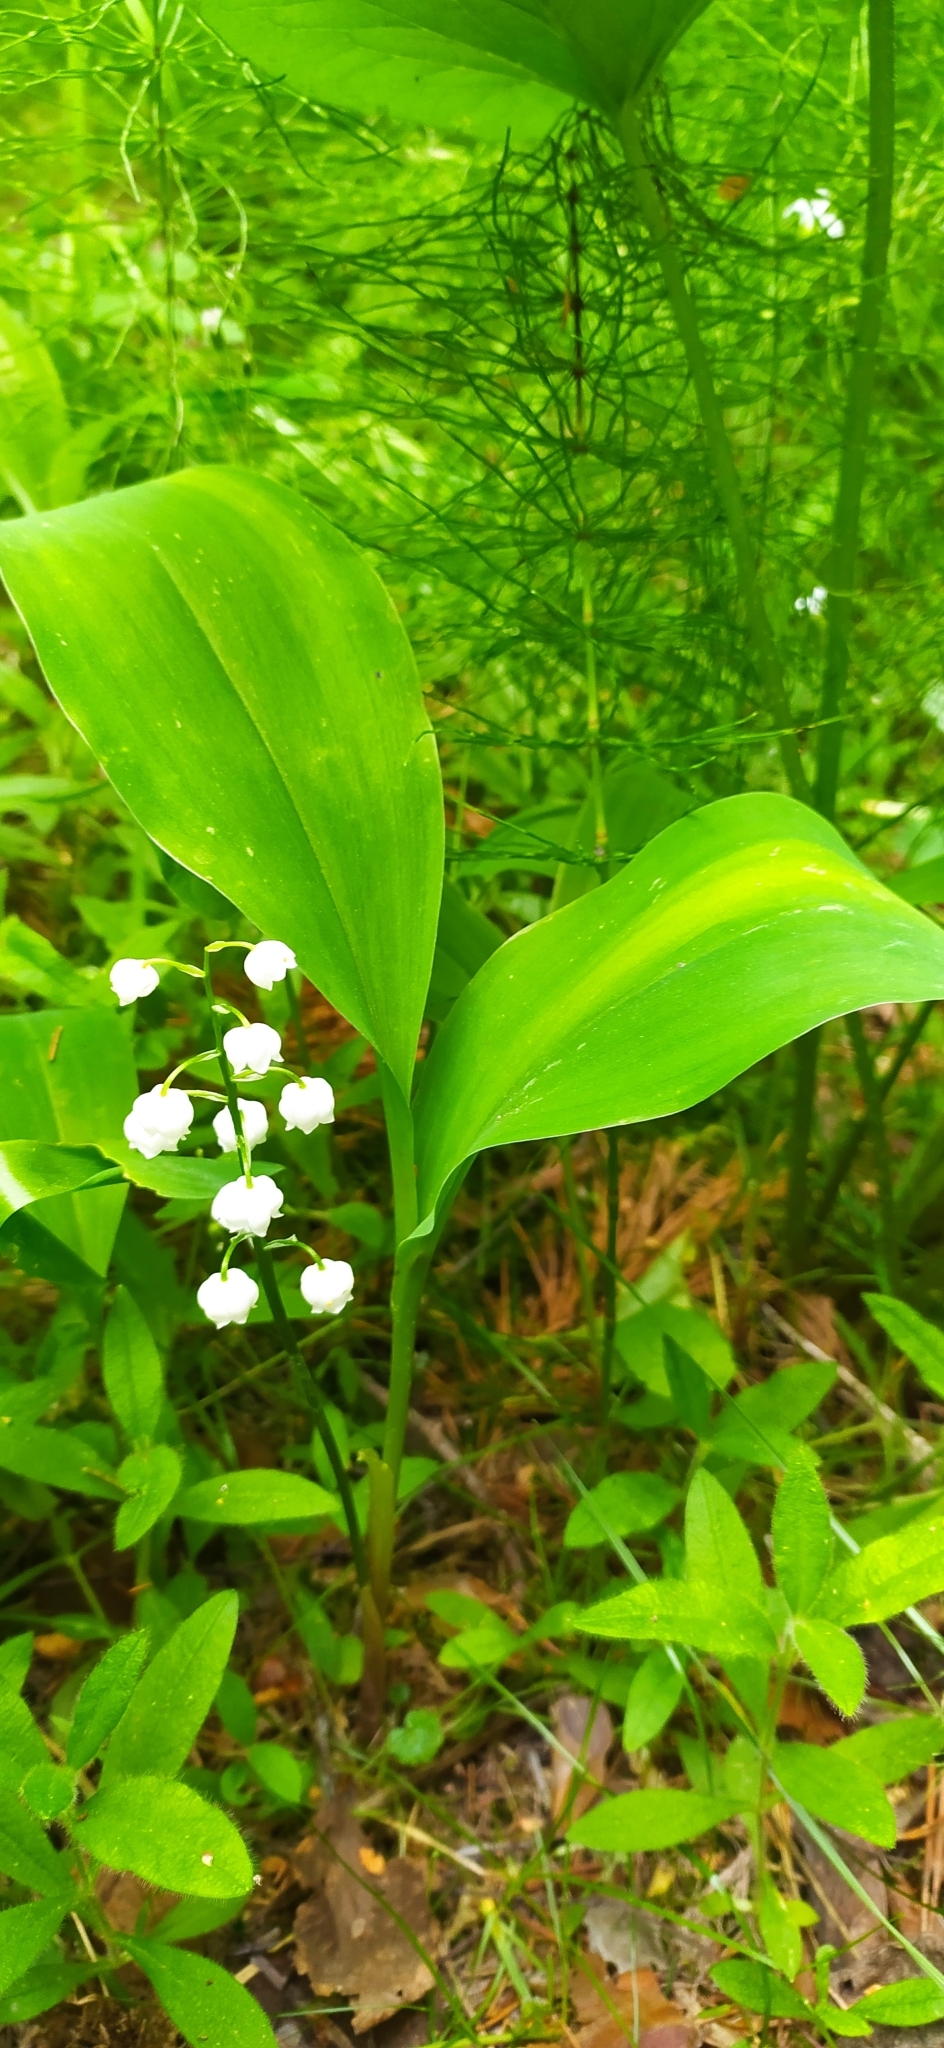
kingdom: Plantae
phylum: Tracheophyta
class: Liliopsida
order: Asparagales
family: Asparagaceae
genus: Convallaria
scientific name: Convallaria majalis
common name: Lily-of-the-valley
